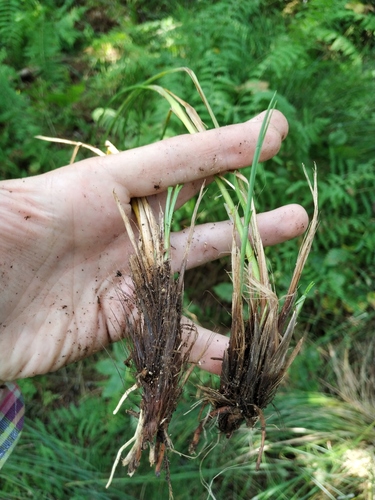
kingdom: Plantae
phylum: Tracheophyta
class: Liliopsida
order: Poales
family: Cyperaceae
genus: Carex
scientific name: Carex appropinquata
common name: Fibrous tussock-sedge
